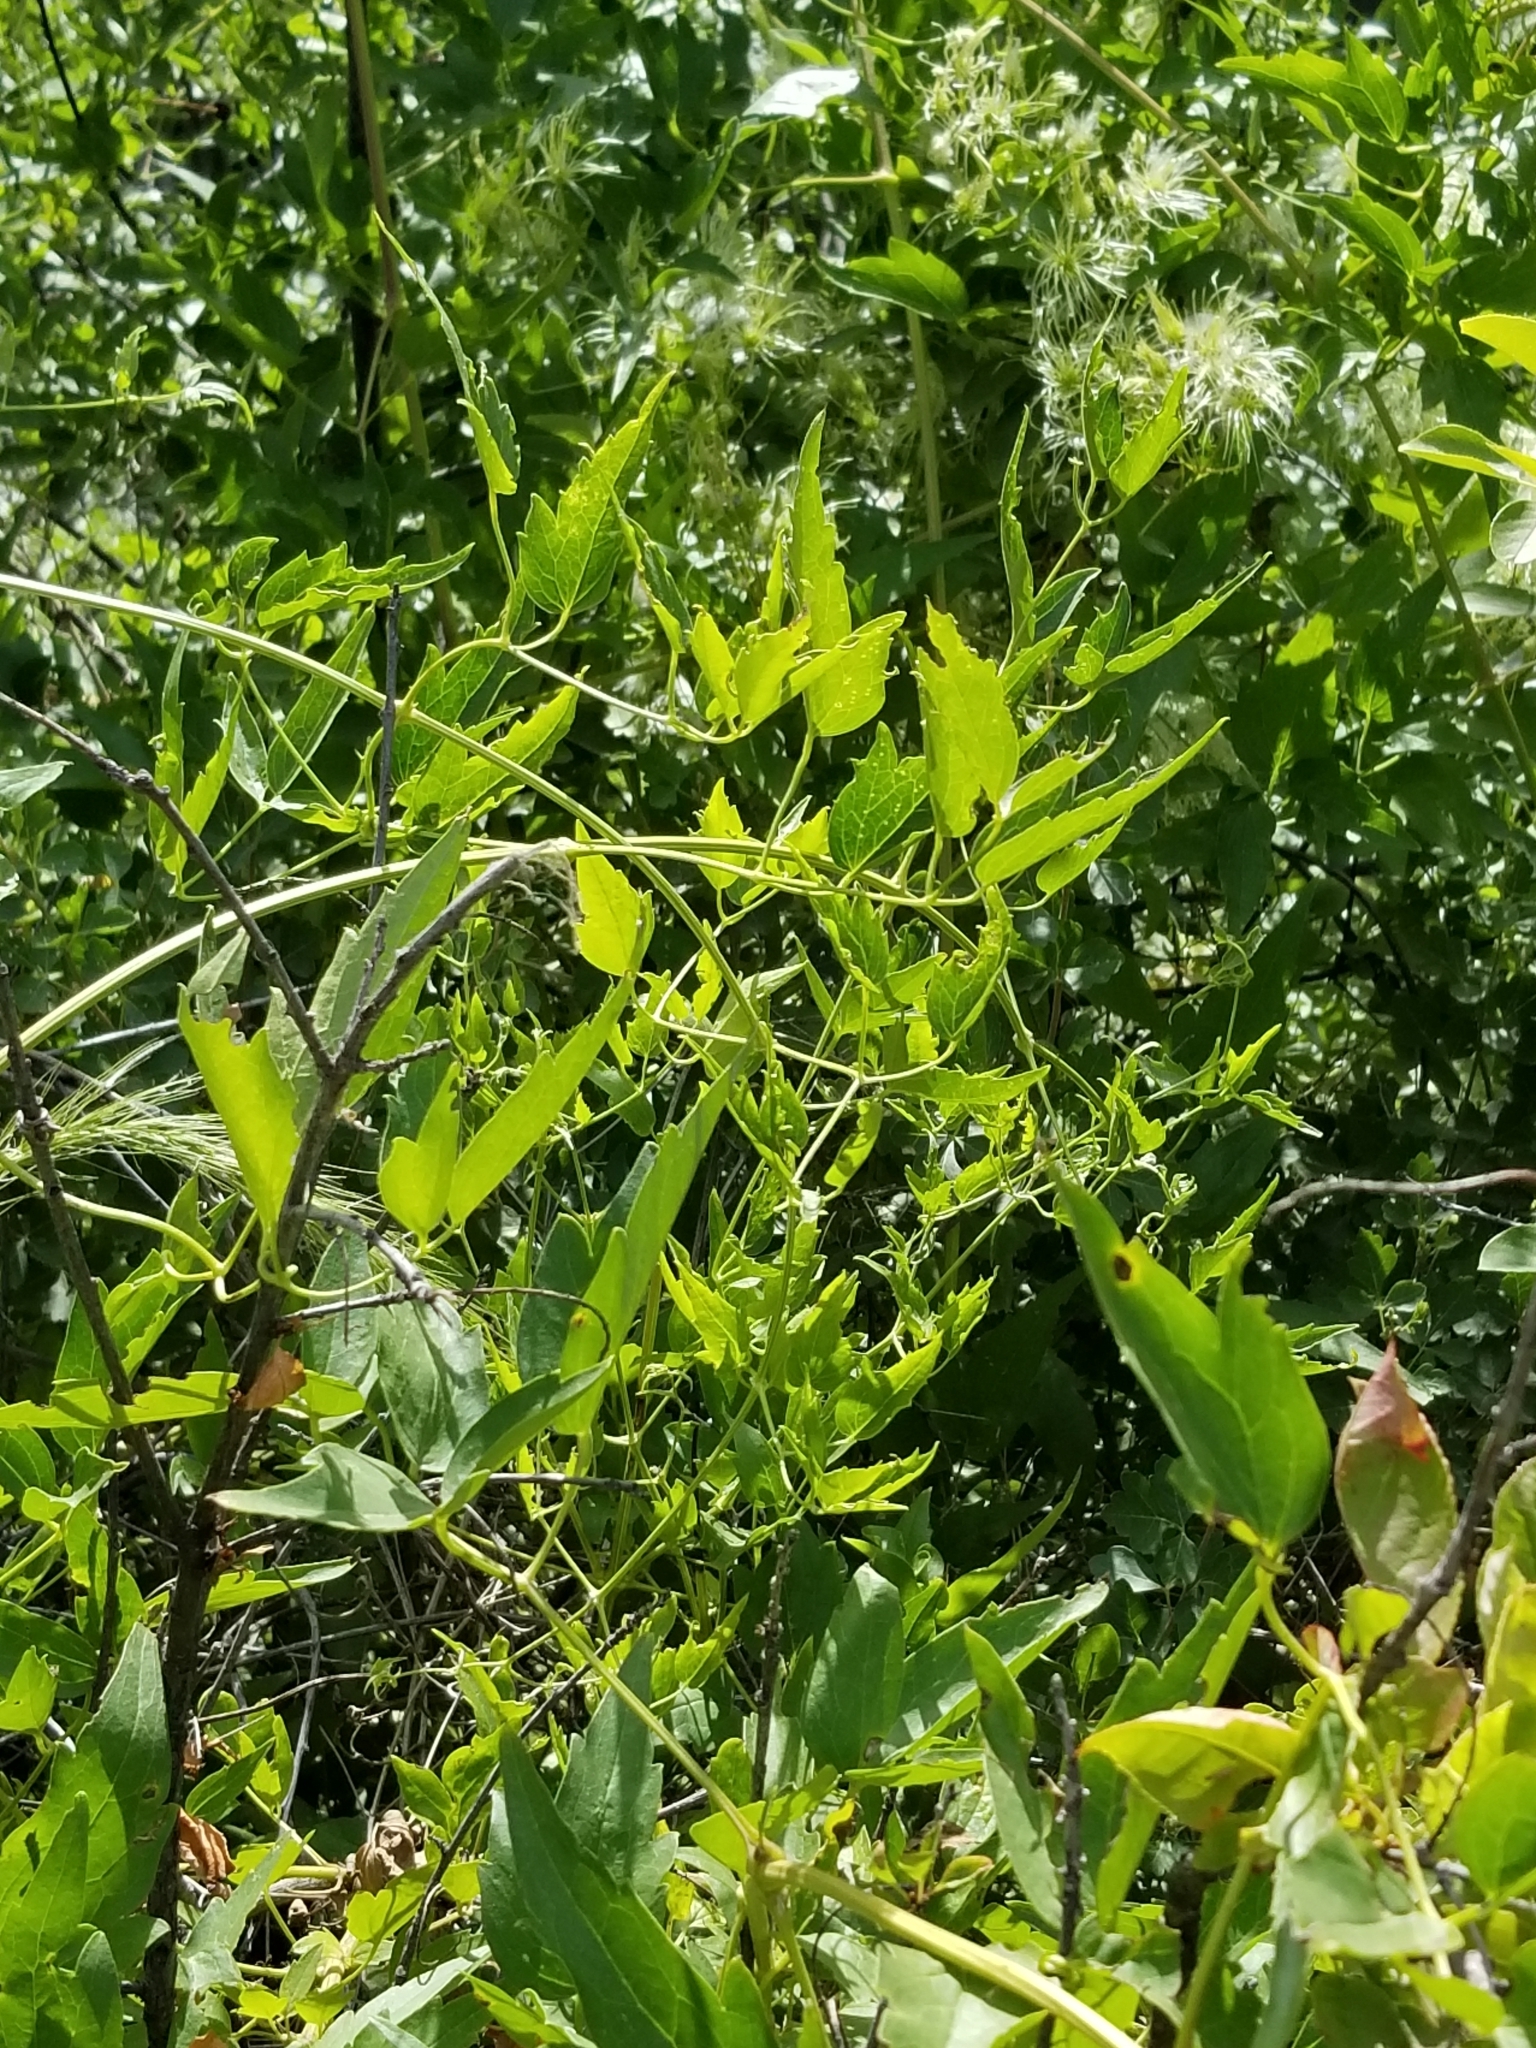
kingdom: Plantae
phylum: Tracheophyta
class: Magnoliopsida
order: Ranunculales
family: Ranunculaceae
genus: Clematis
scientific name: Clematis ligusticifolia
